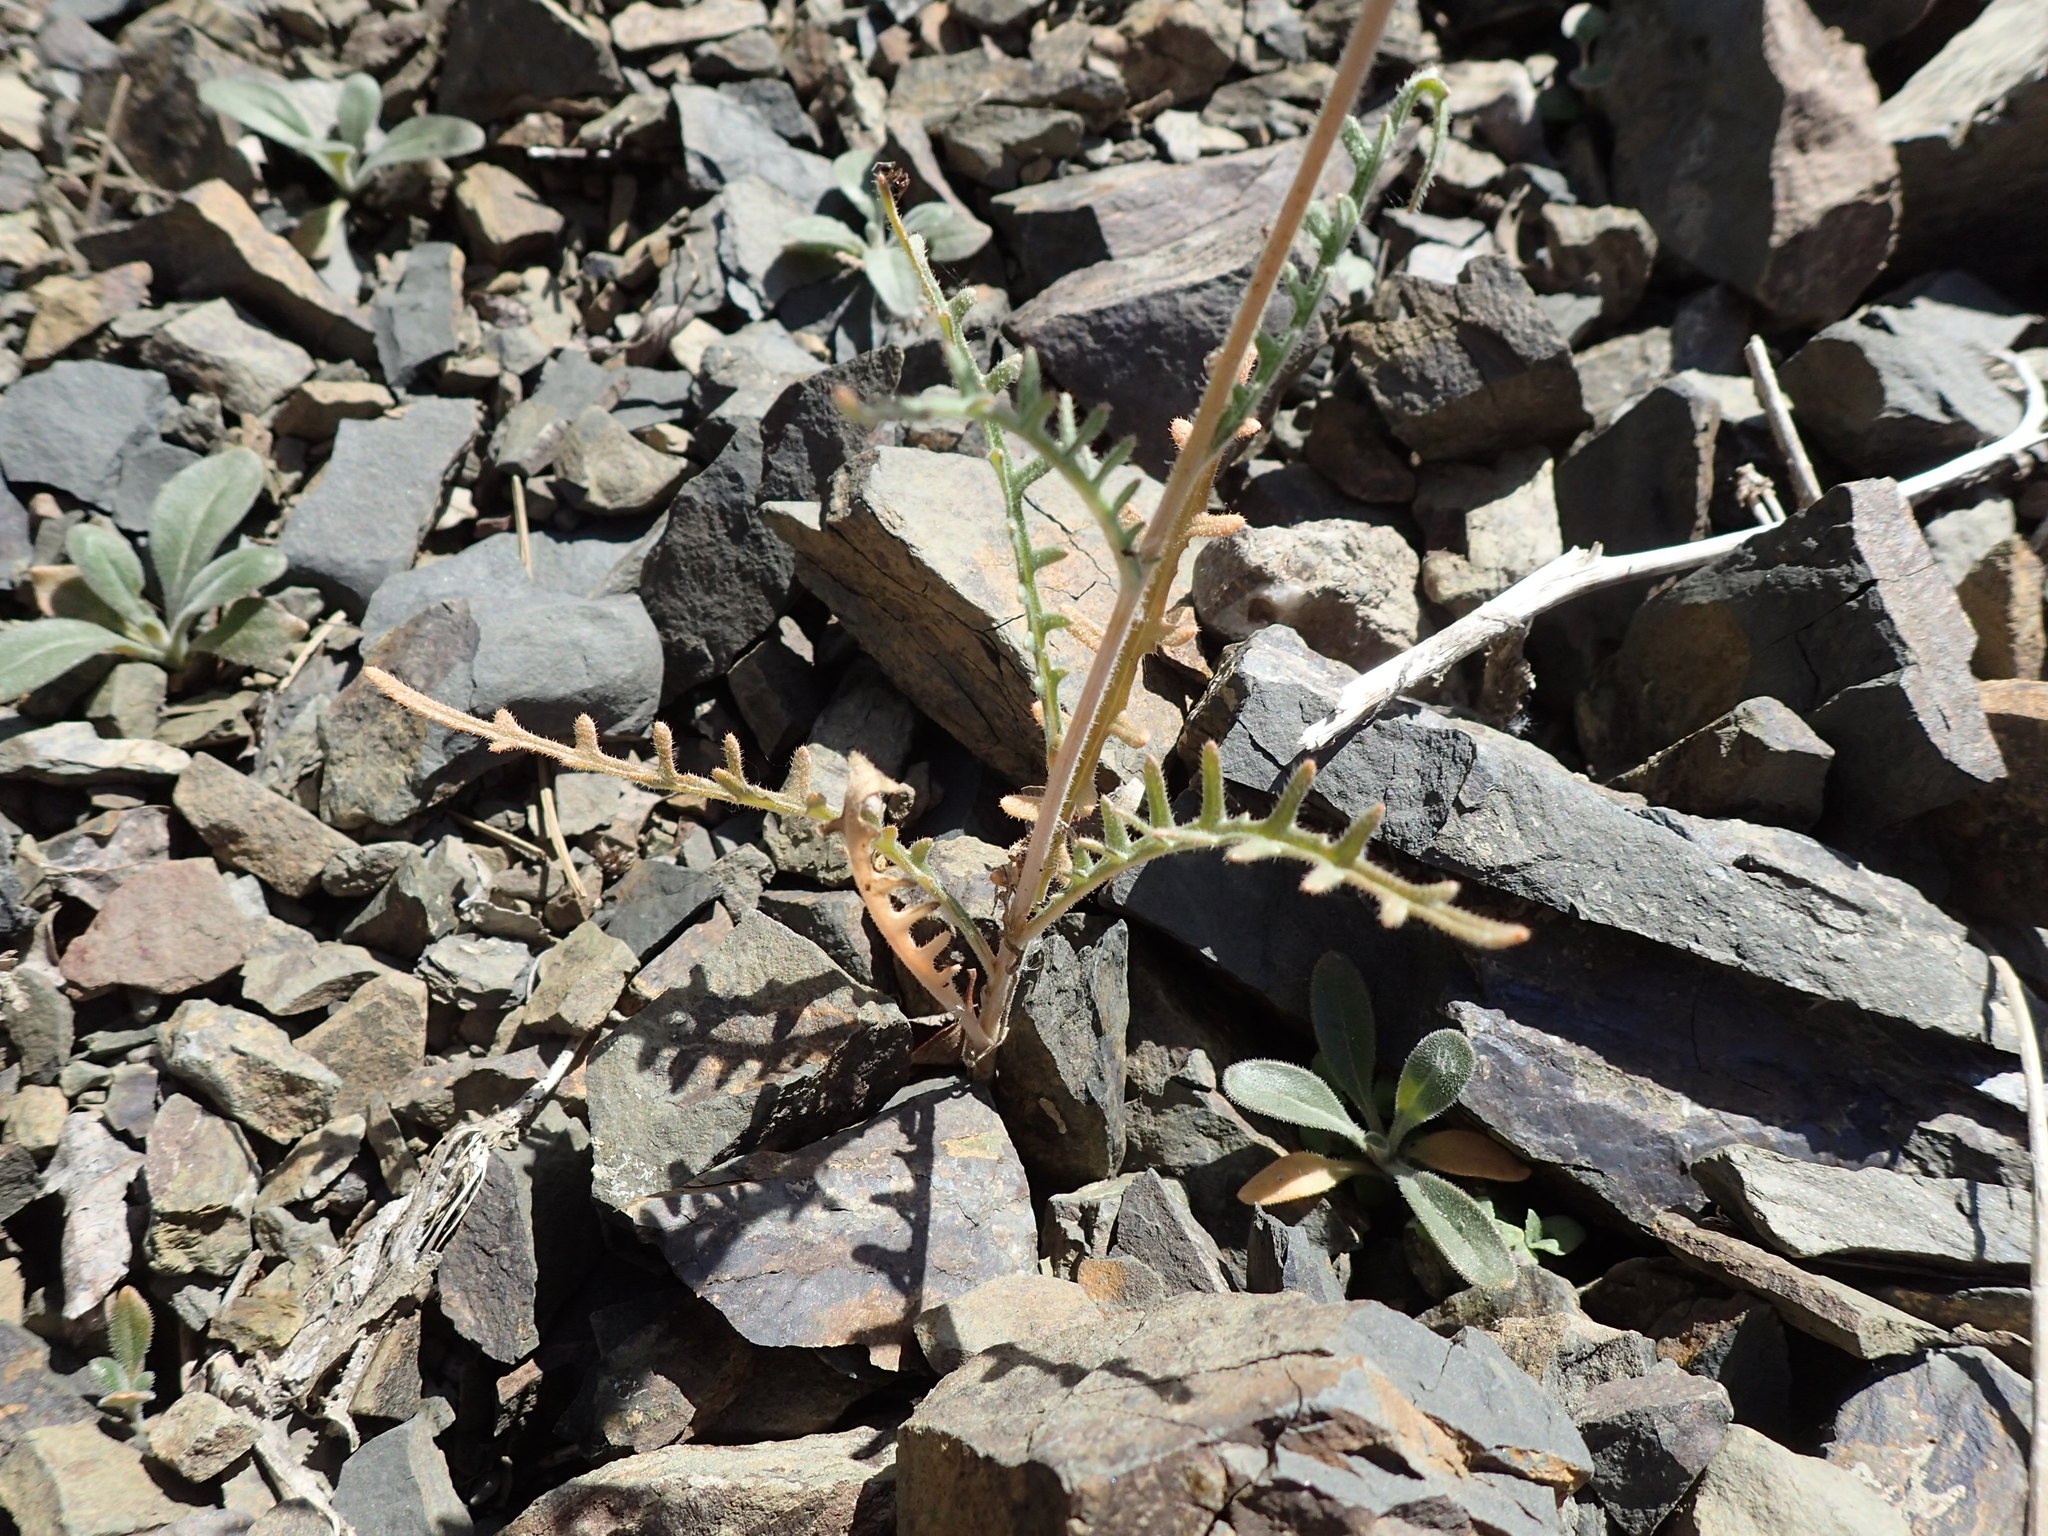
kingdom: Plantae
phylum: Tracheophyta
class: Magnoliopsida
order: Cornales
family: Loasaceae
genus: Mentzelia
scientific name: Mentzelia lindleyi
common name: Golden bartonia
